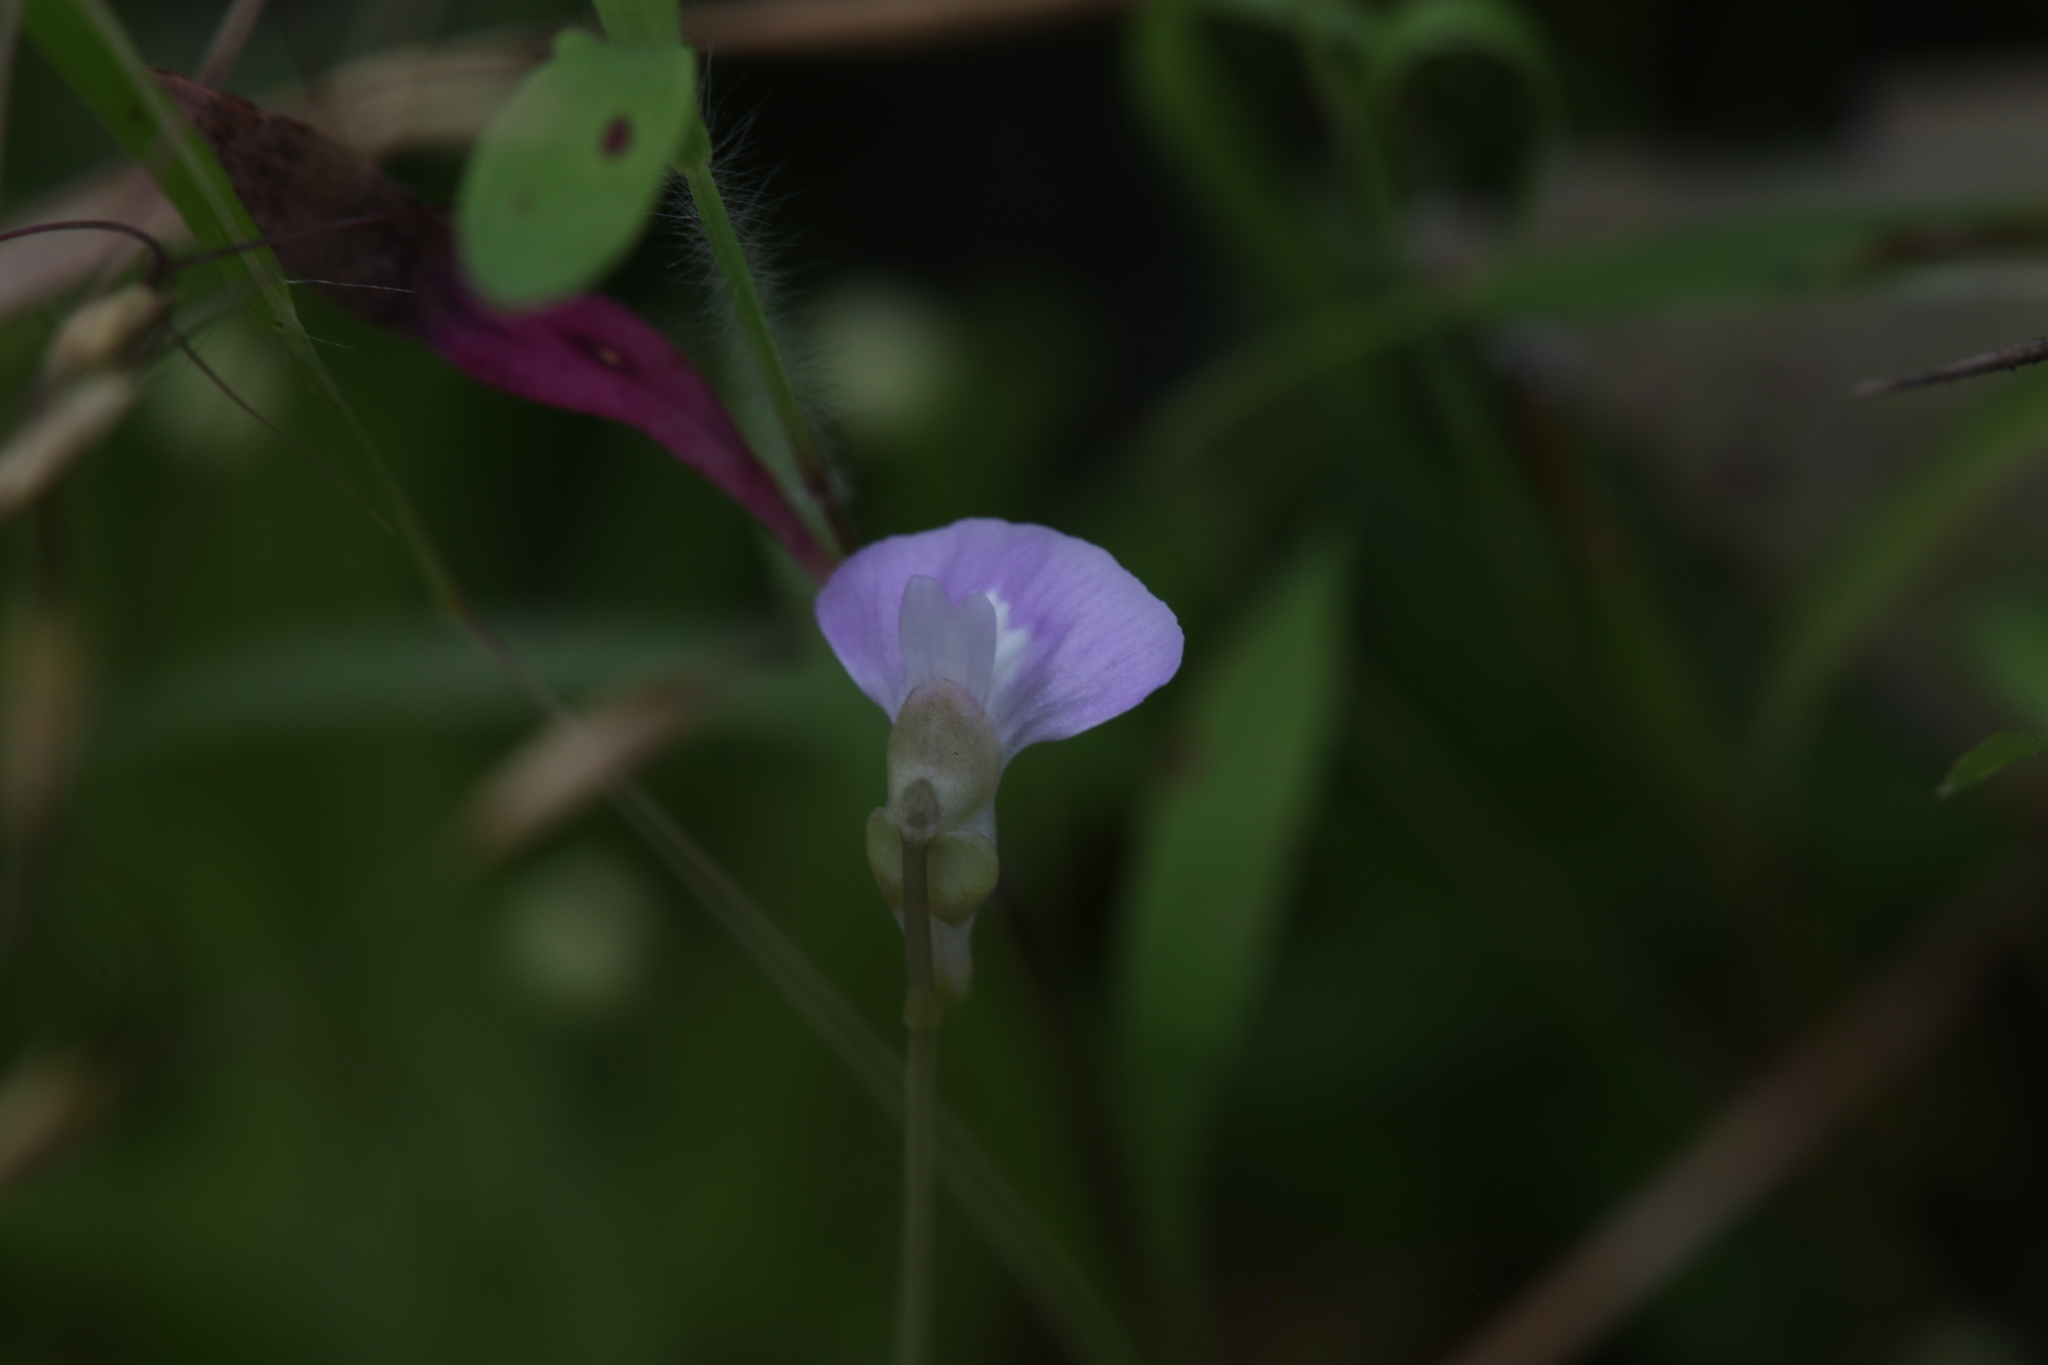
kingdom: Plantae
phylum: Tracheophyta
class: Magnoliopsida
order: Lamiales
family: Lentibulariaceae
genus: Utricularia
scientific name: Utricularia terrae-reginae
